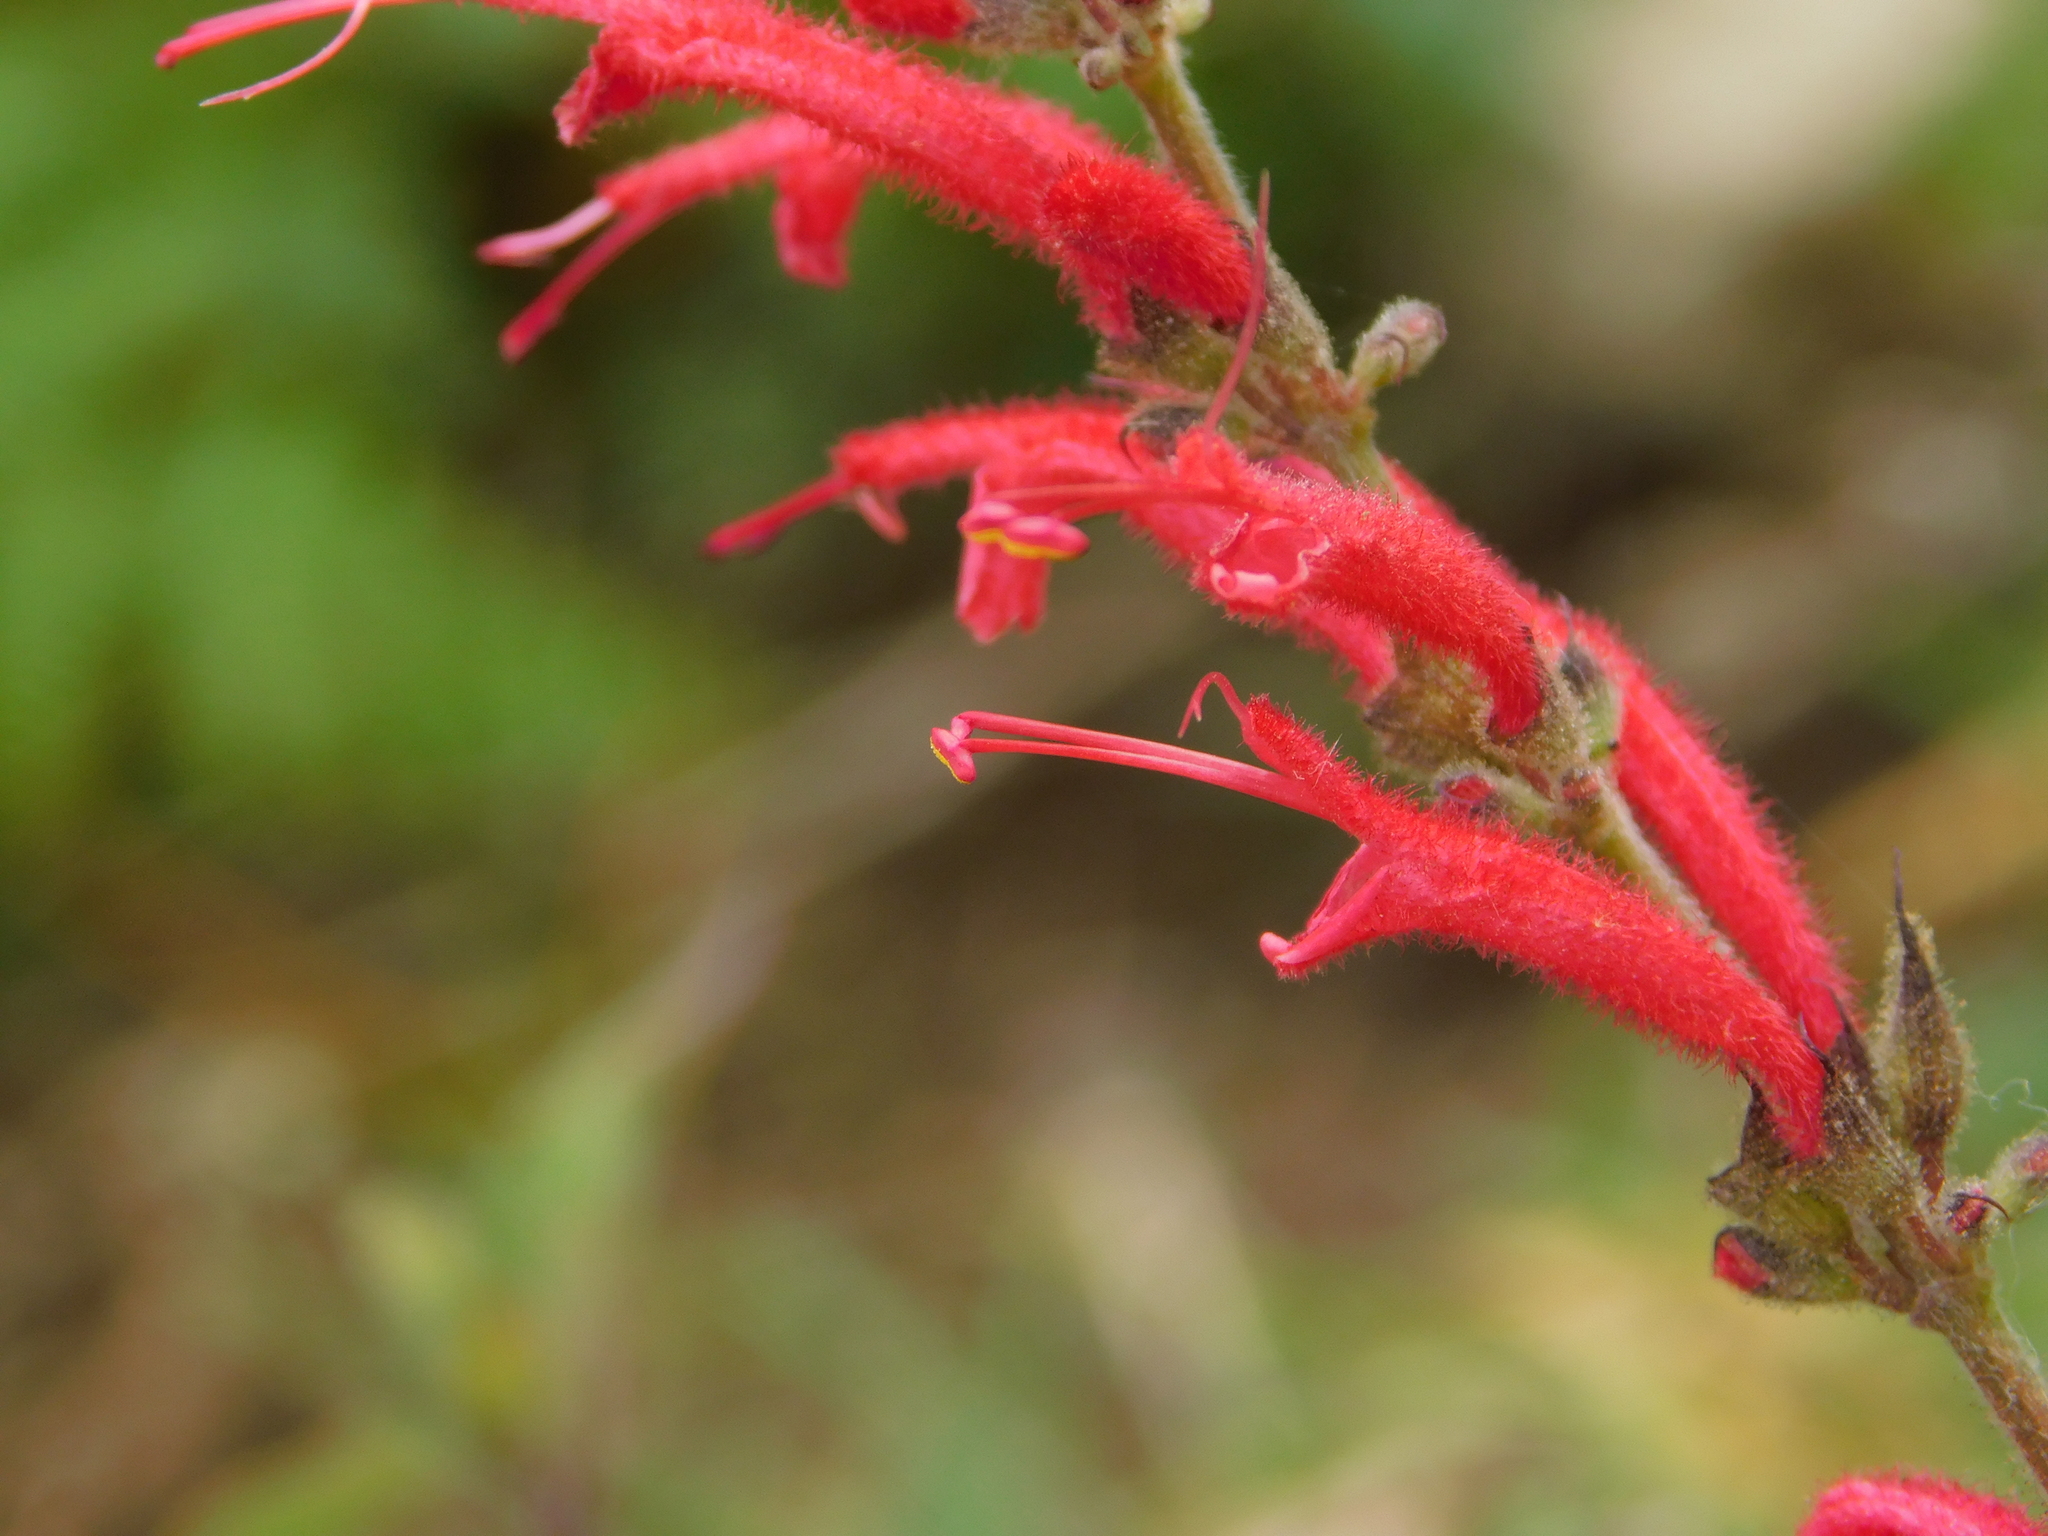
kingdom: Plantae
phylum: Tracheophyta
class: Magnoliopsida
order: Lamiales
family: Lamiaceae
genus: Salvia
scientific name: Salvia cinnabarina
